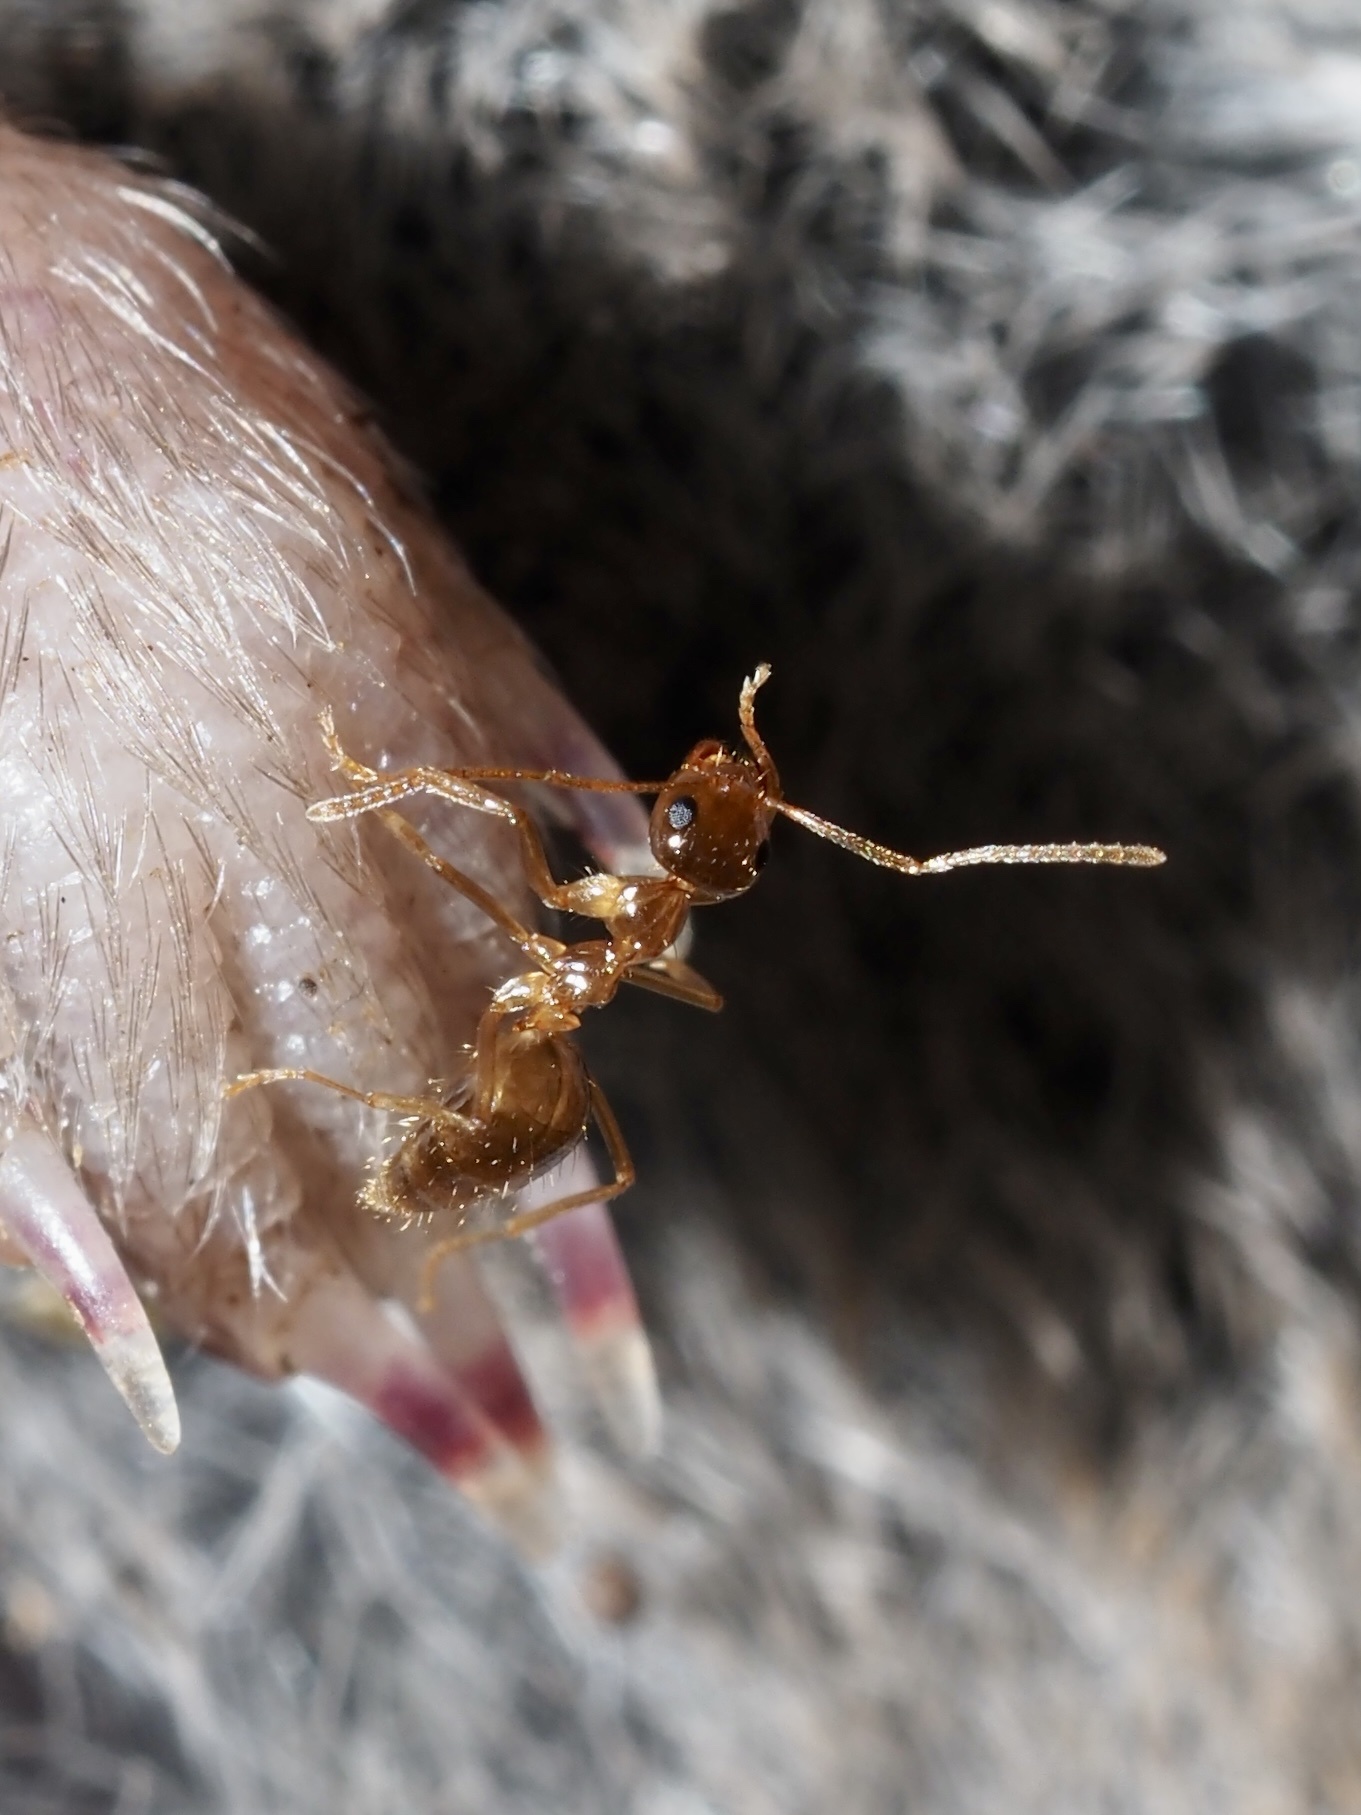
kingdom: Animalia
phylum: Arthropoda
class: Insecta
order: Hymenoptera
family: Formicidae
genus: Prenolepis
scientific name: Prenolepis imparis
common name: Small honey ant
